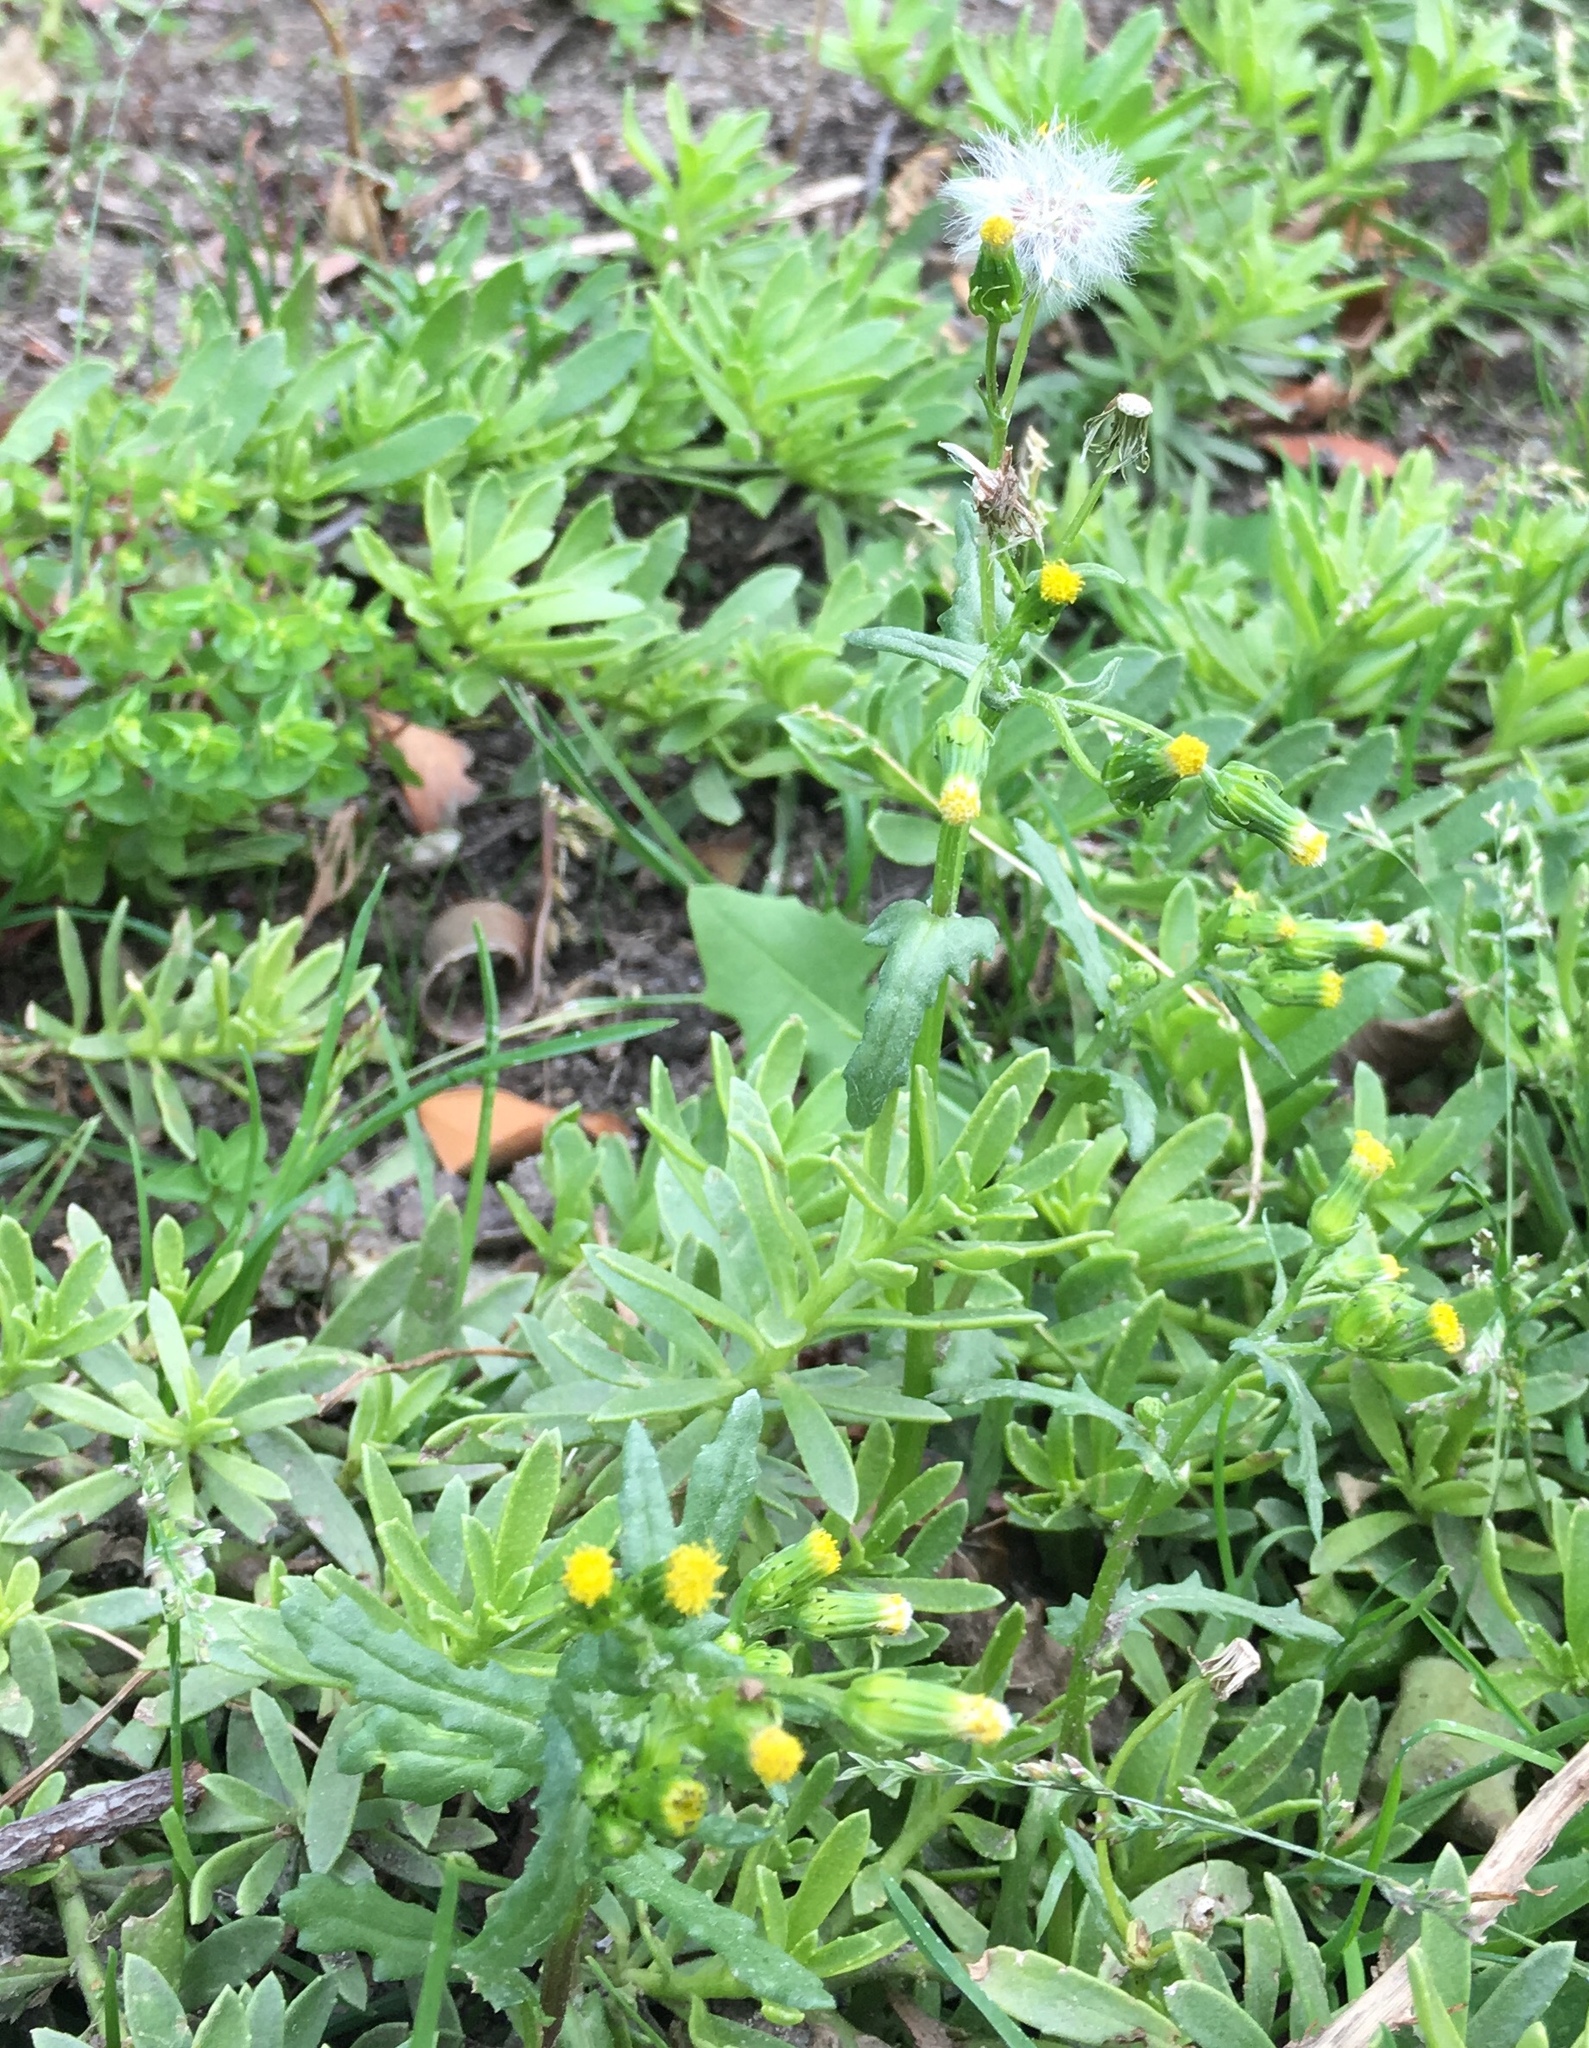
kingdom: Plantae
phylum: Tracheophyta
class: Magnoliopsida
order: Asterales
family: Asteraceae
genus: Senecio
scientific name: Senecio vulgaris
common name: Old-man-in-the-spring
